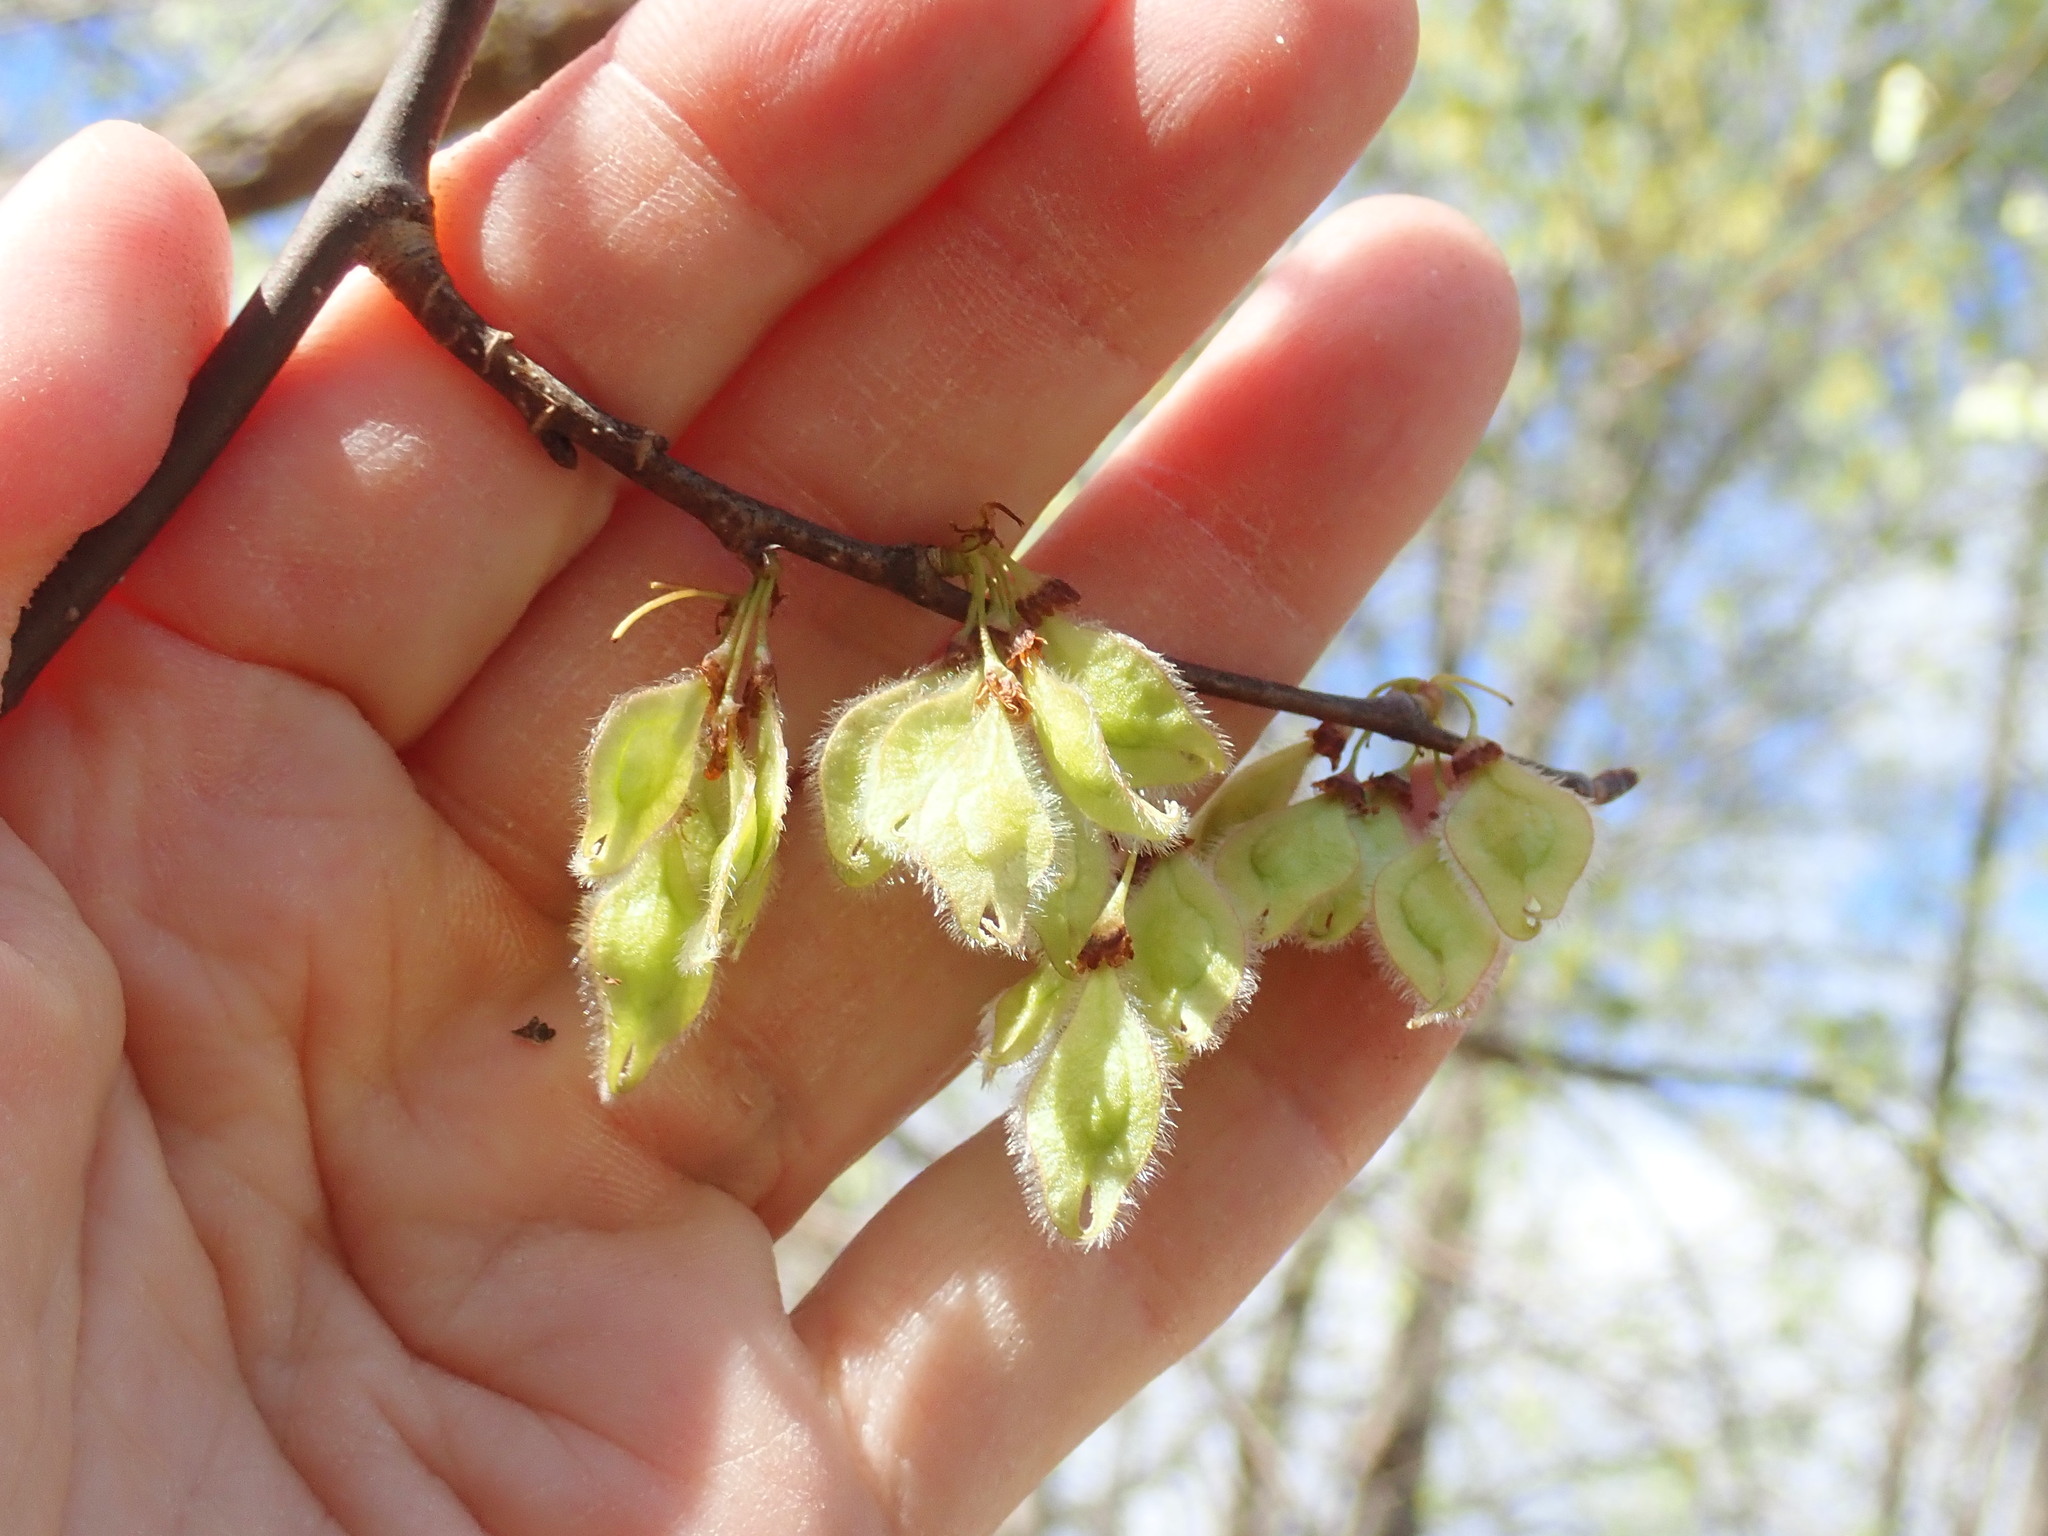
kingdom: Plantae
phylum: Tracheophyta
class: Magnoliopsida
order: Rosales
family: Ulmaceae
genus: Ulmus
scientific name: Ulmus americana
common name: American elm
